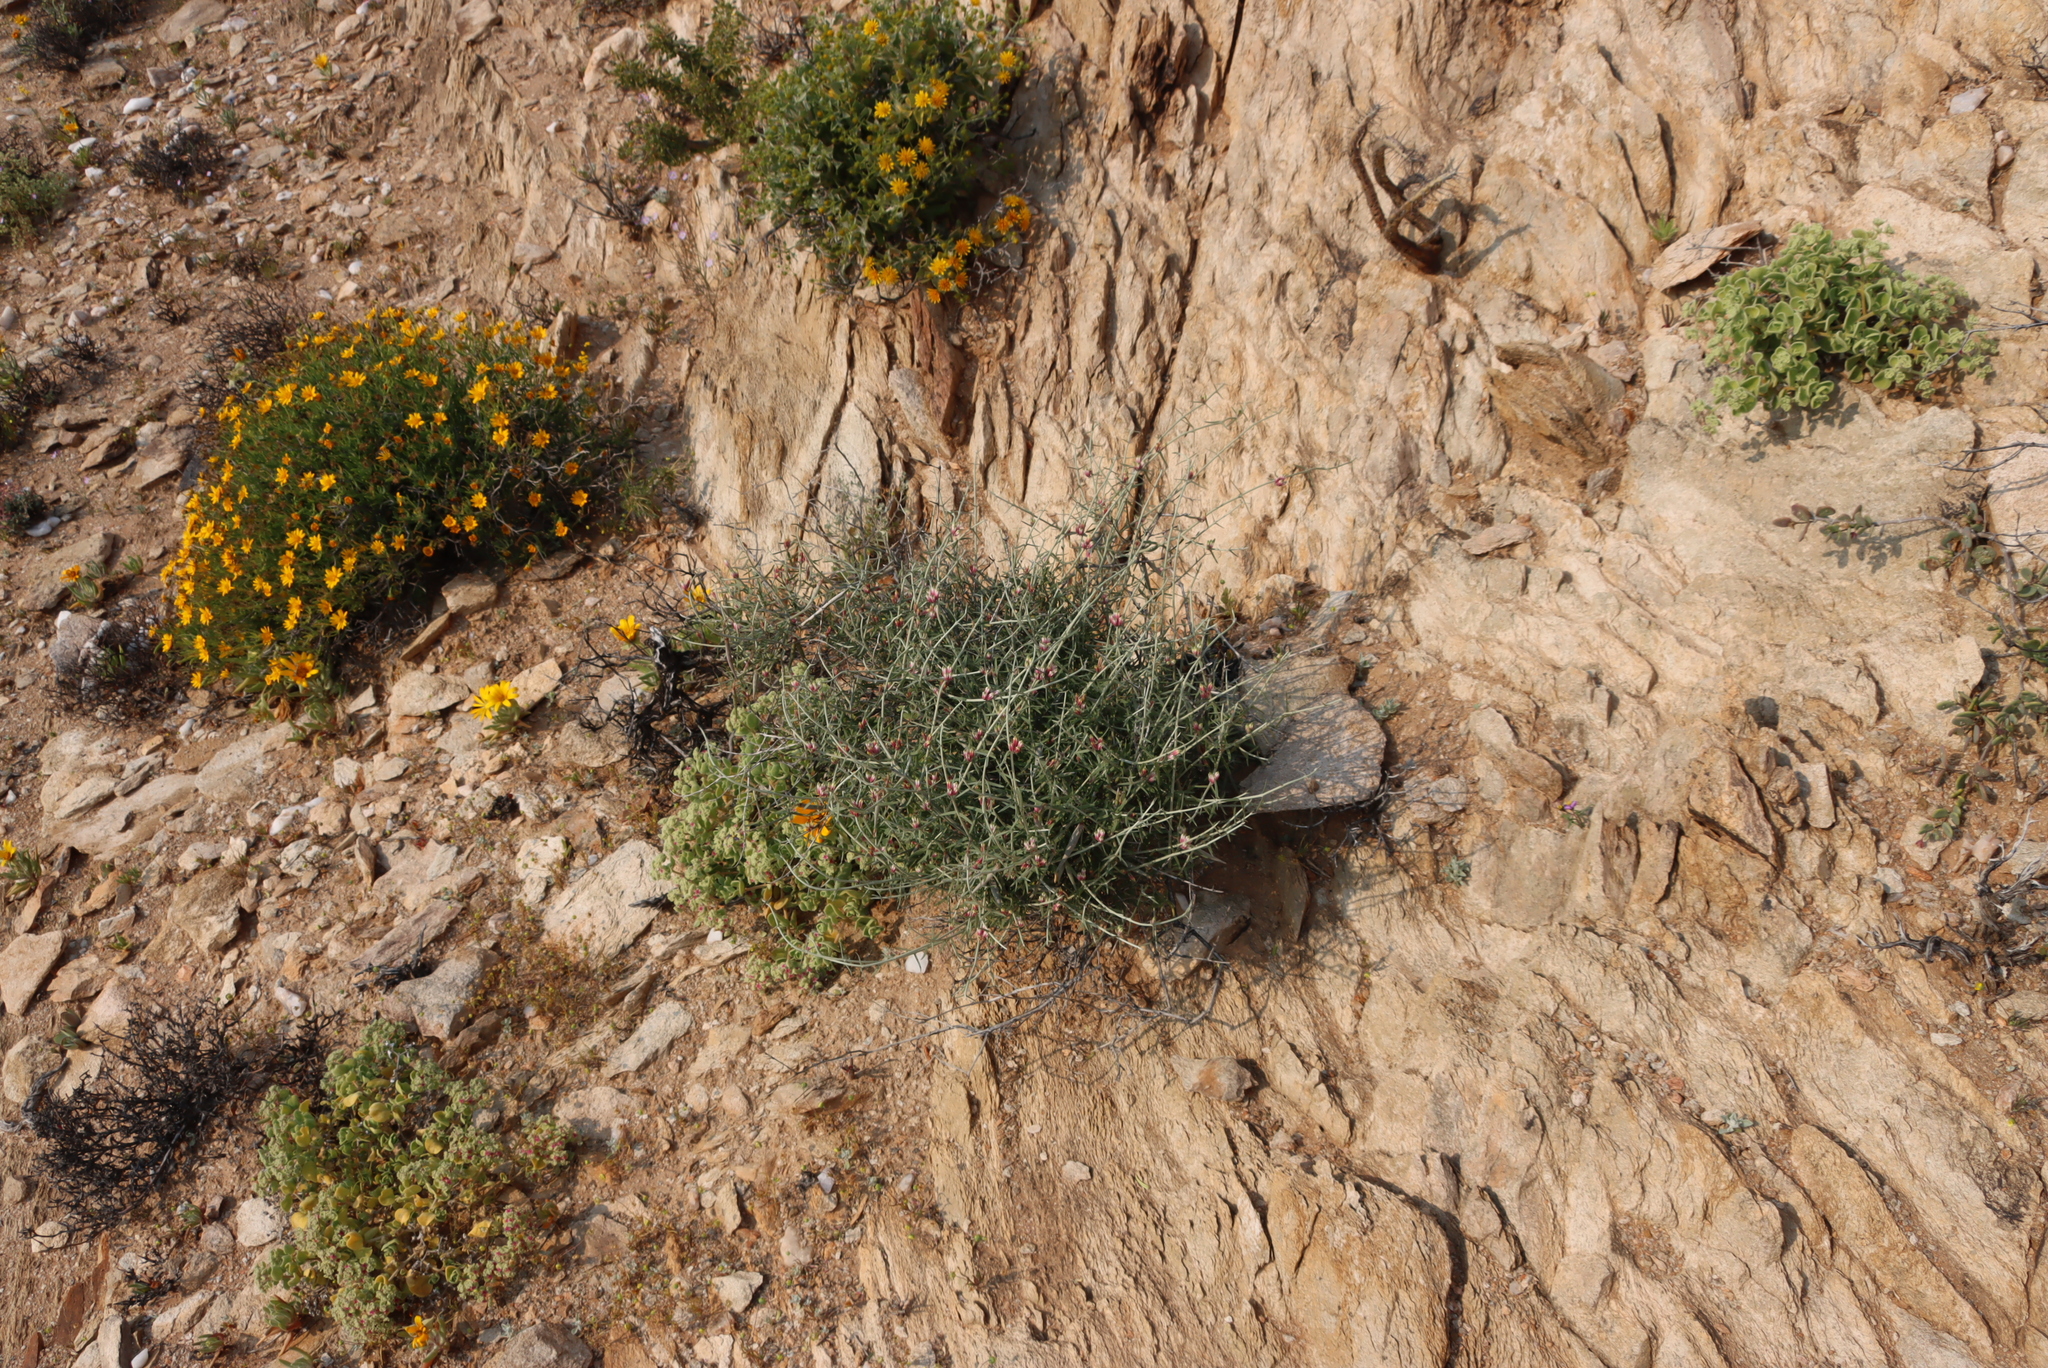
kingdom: Plantae
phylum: Tracheophyta
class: Magnoliopsida
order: Gentianales
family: Apocynaceae
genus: Microloma
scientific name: Microloma incanum
